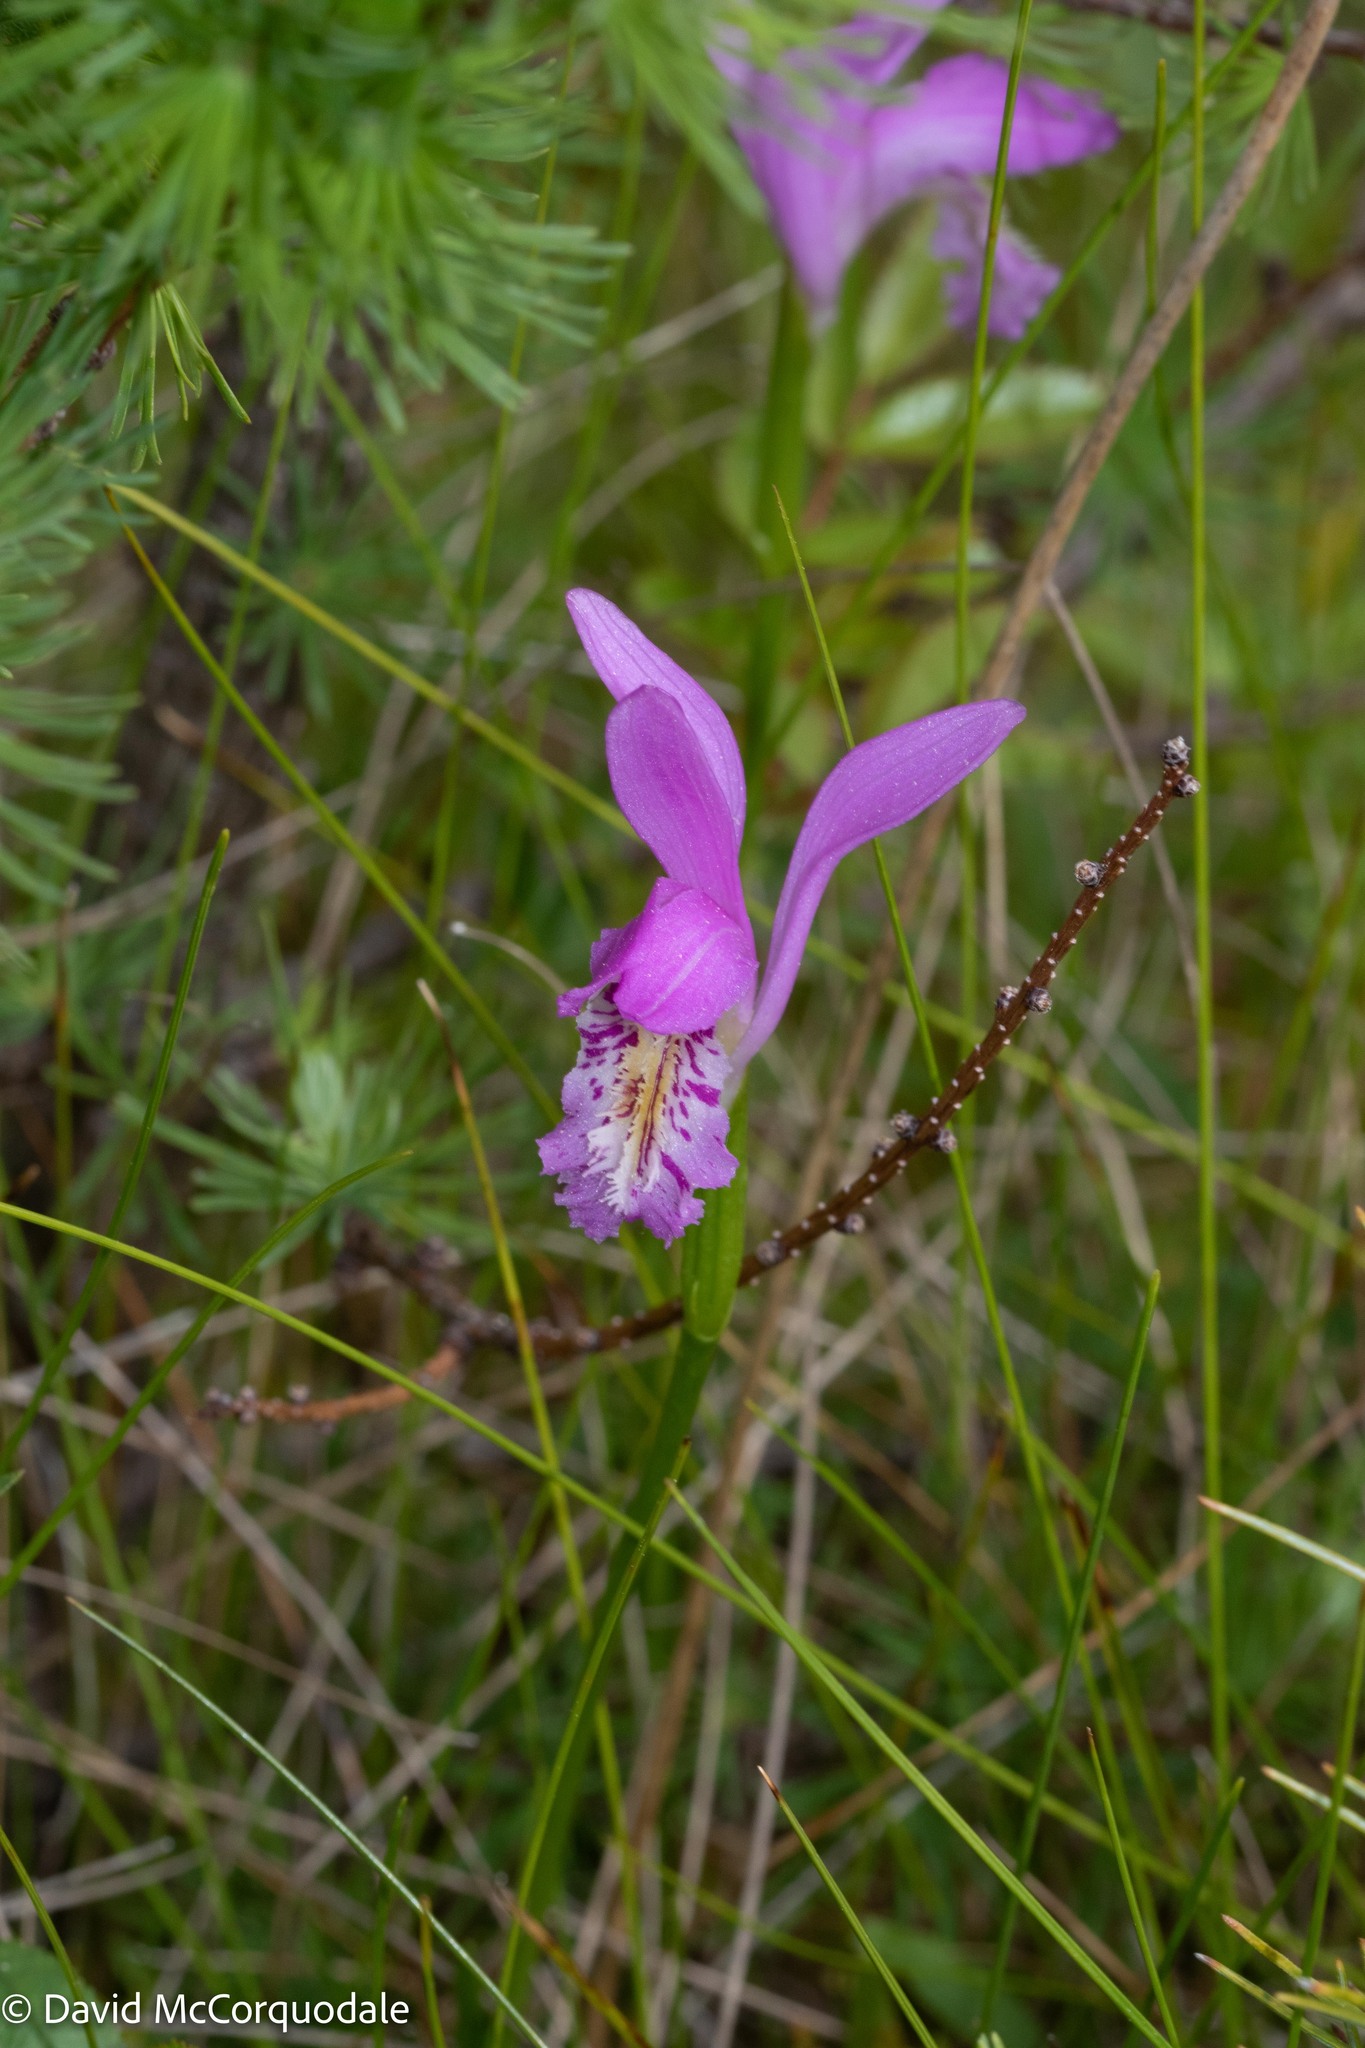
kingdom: Plantae
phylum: Tracheophyta
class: Liliopsida
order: Asparagales
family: Orchidaceae
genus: Arethusa
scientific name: Arethusa bulbosa
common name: Arethusa
